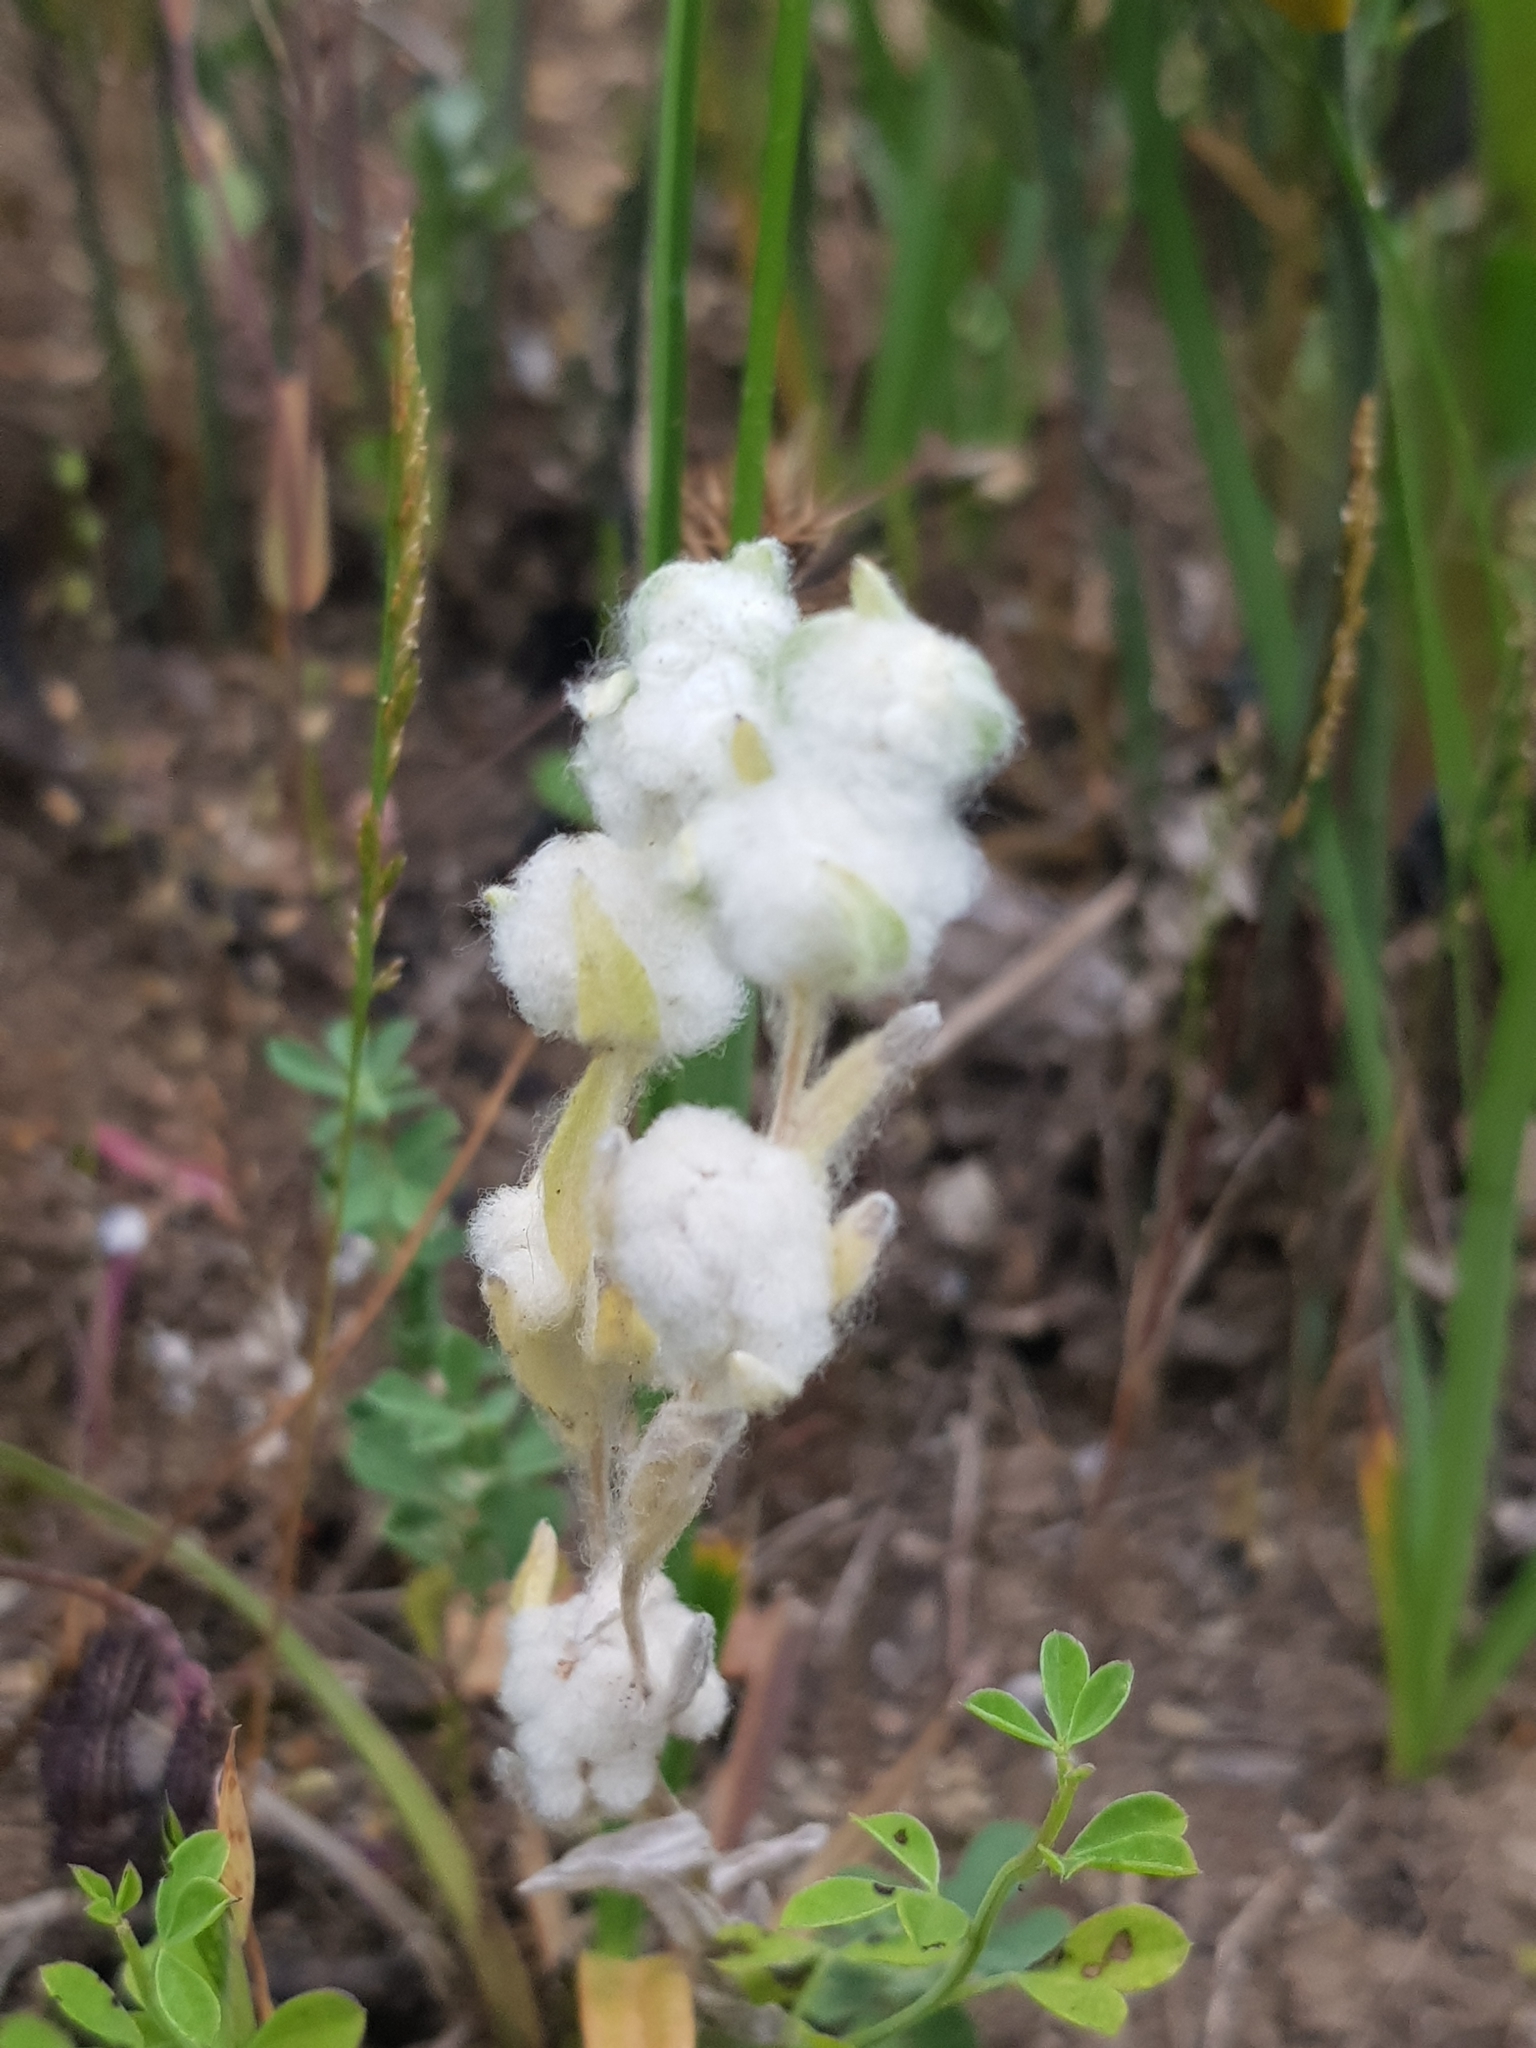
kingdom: Plantae
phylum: Tracheophyta
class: Magnoliopsida
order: Asterales
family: Asteraceae
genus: Bombycilaena
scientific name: Bombycilaena discolor
